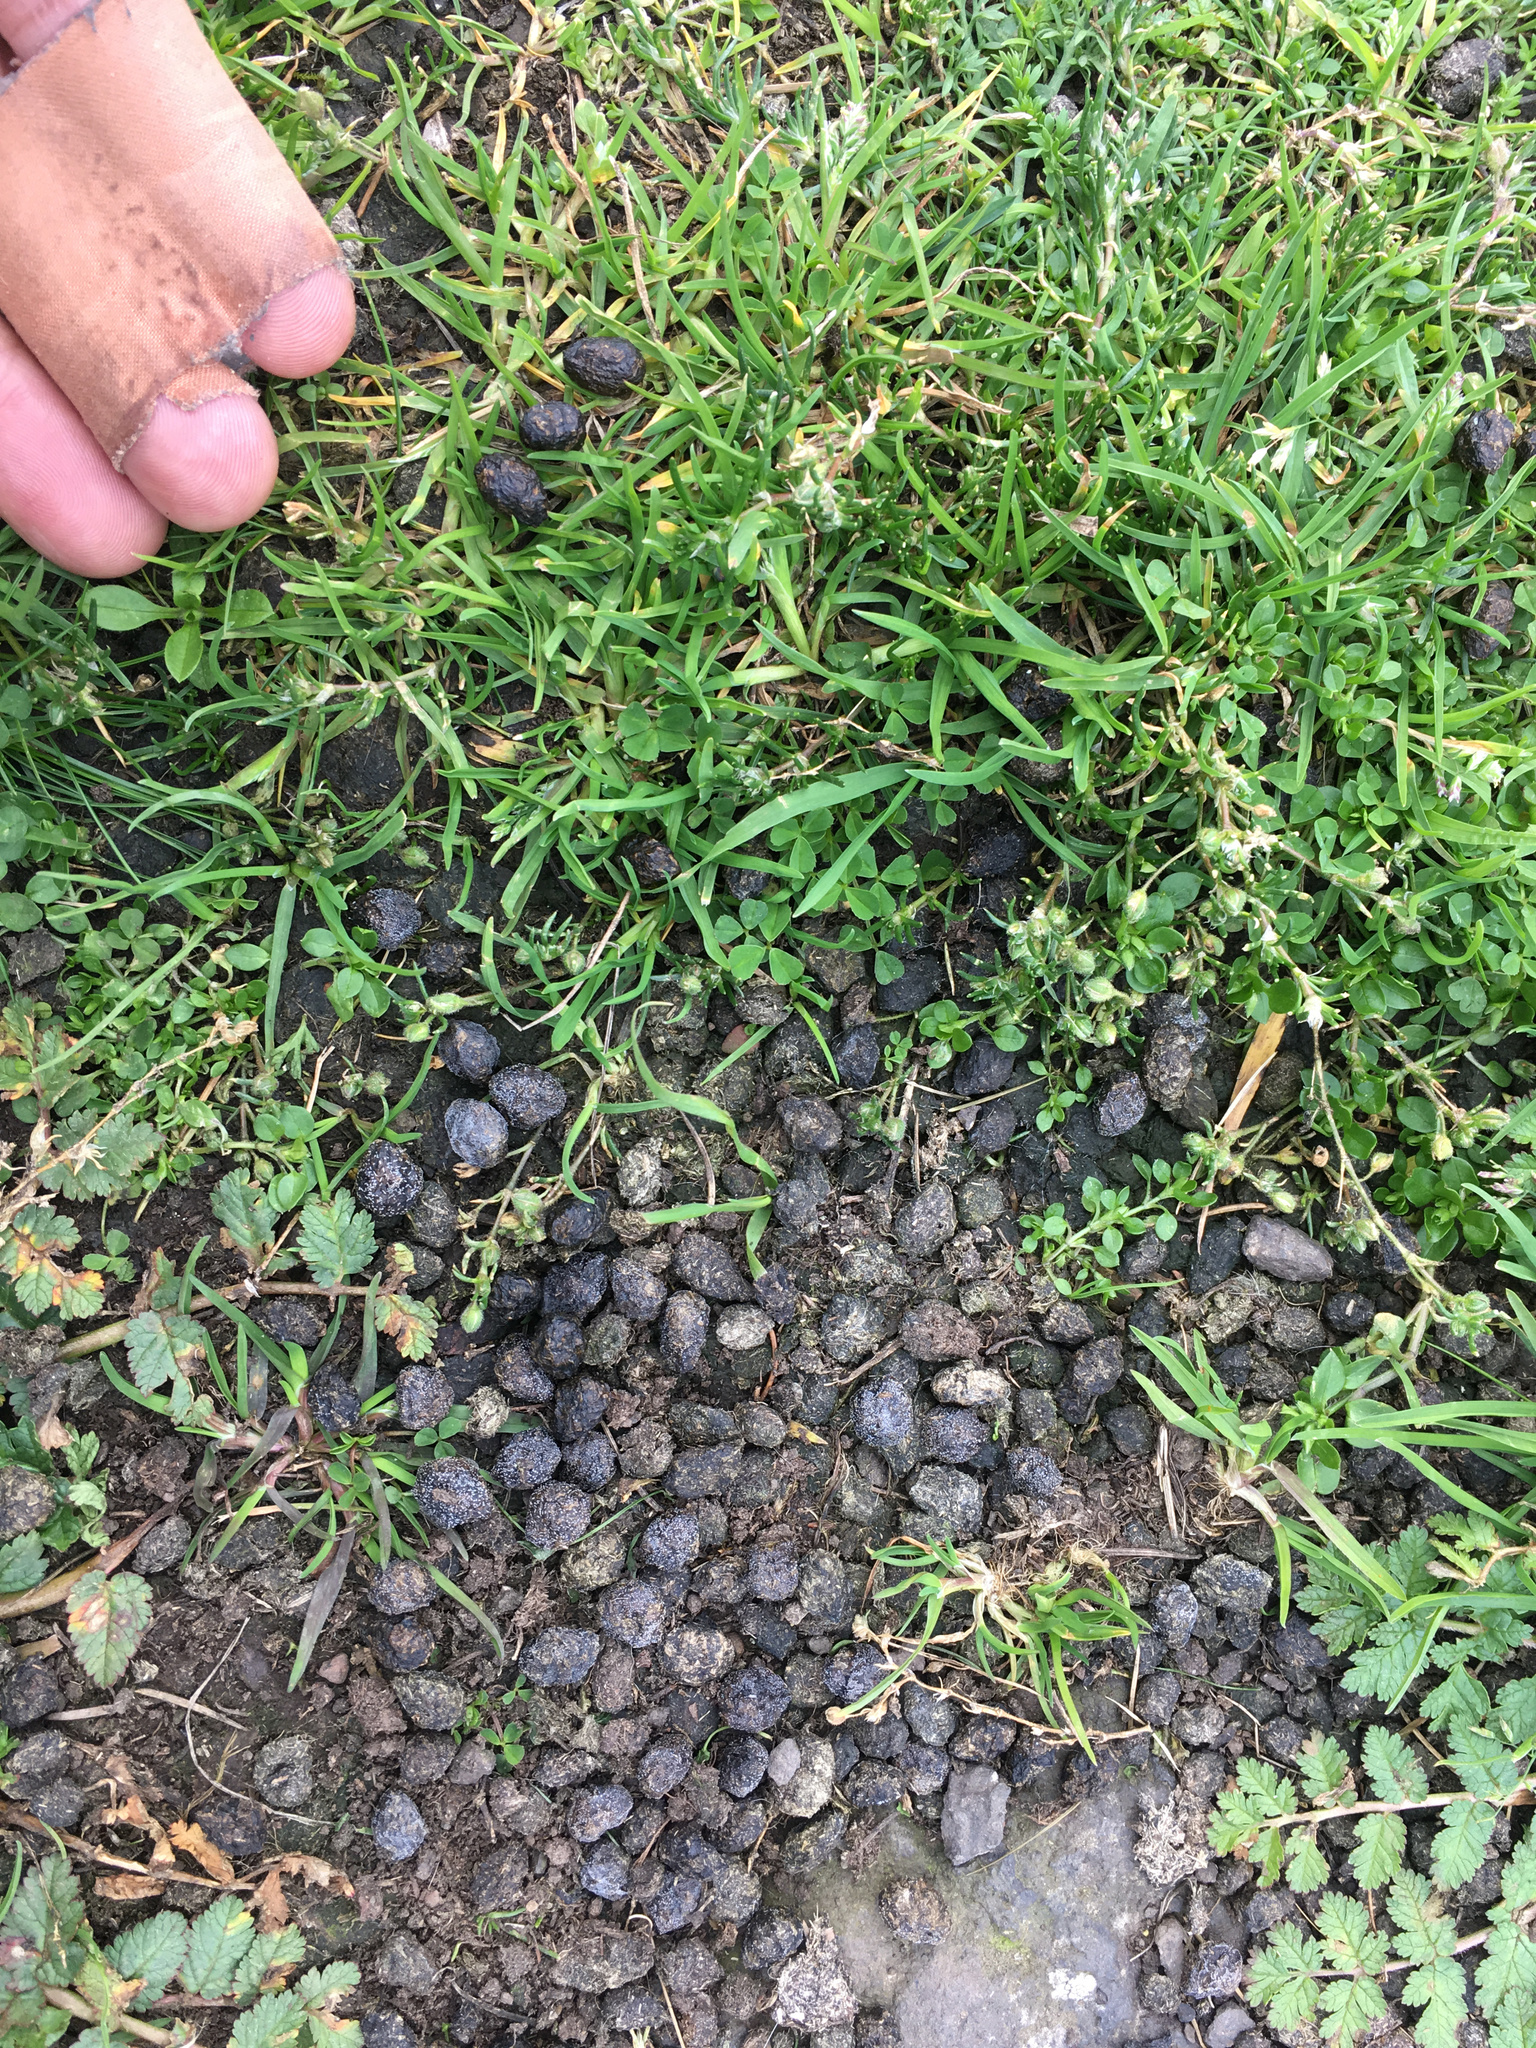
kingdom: Animalia
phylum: Chordata
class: Mammalia
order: Lagomorpha
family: Leporidae
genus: Oryctolagus
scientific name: Oryctolagus cuniculus
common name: European rabbit
